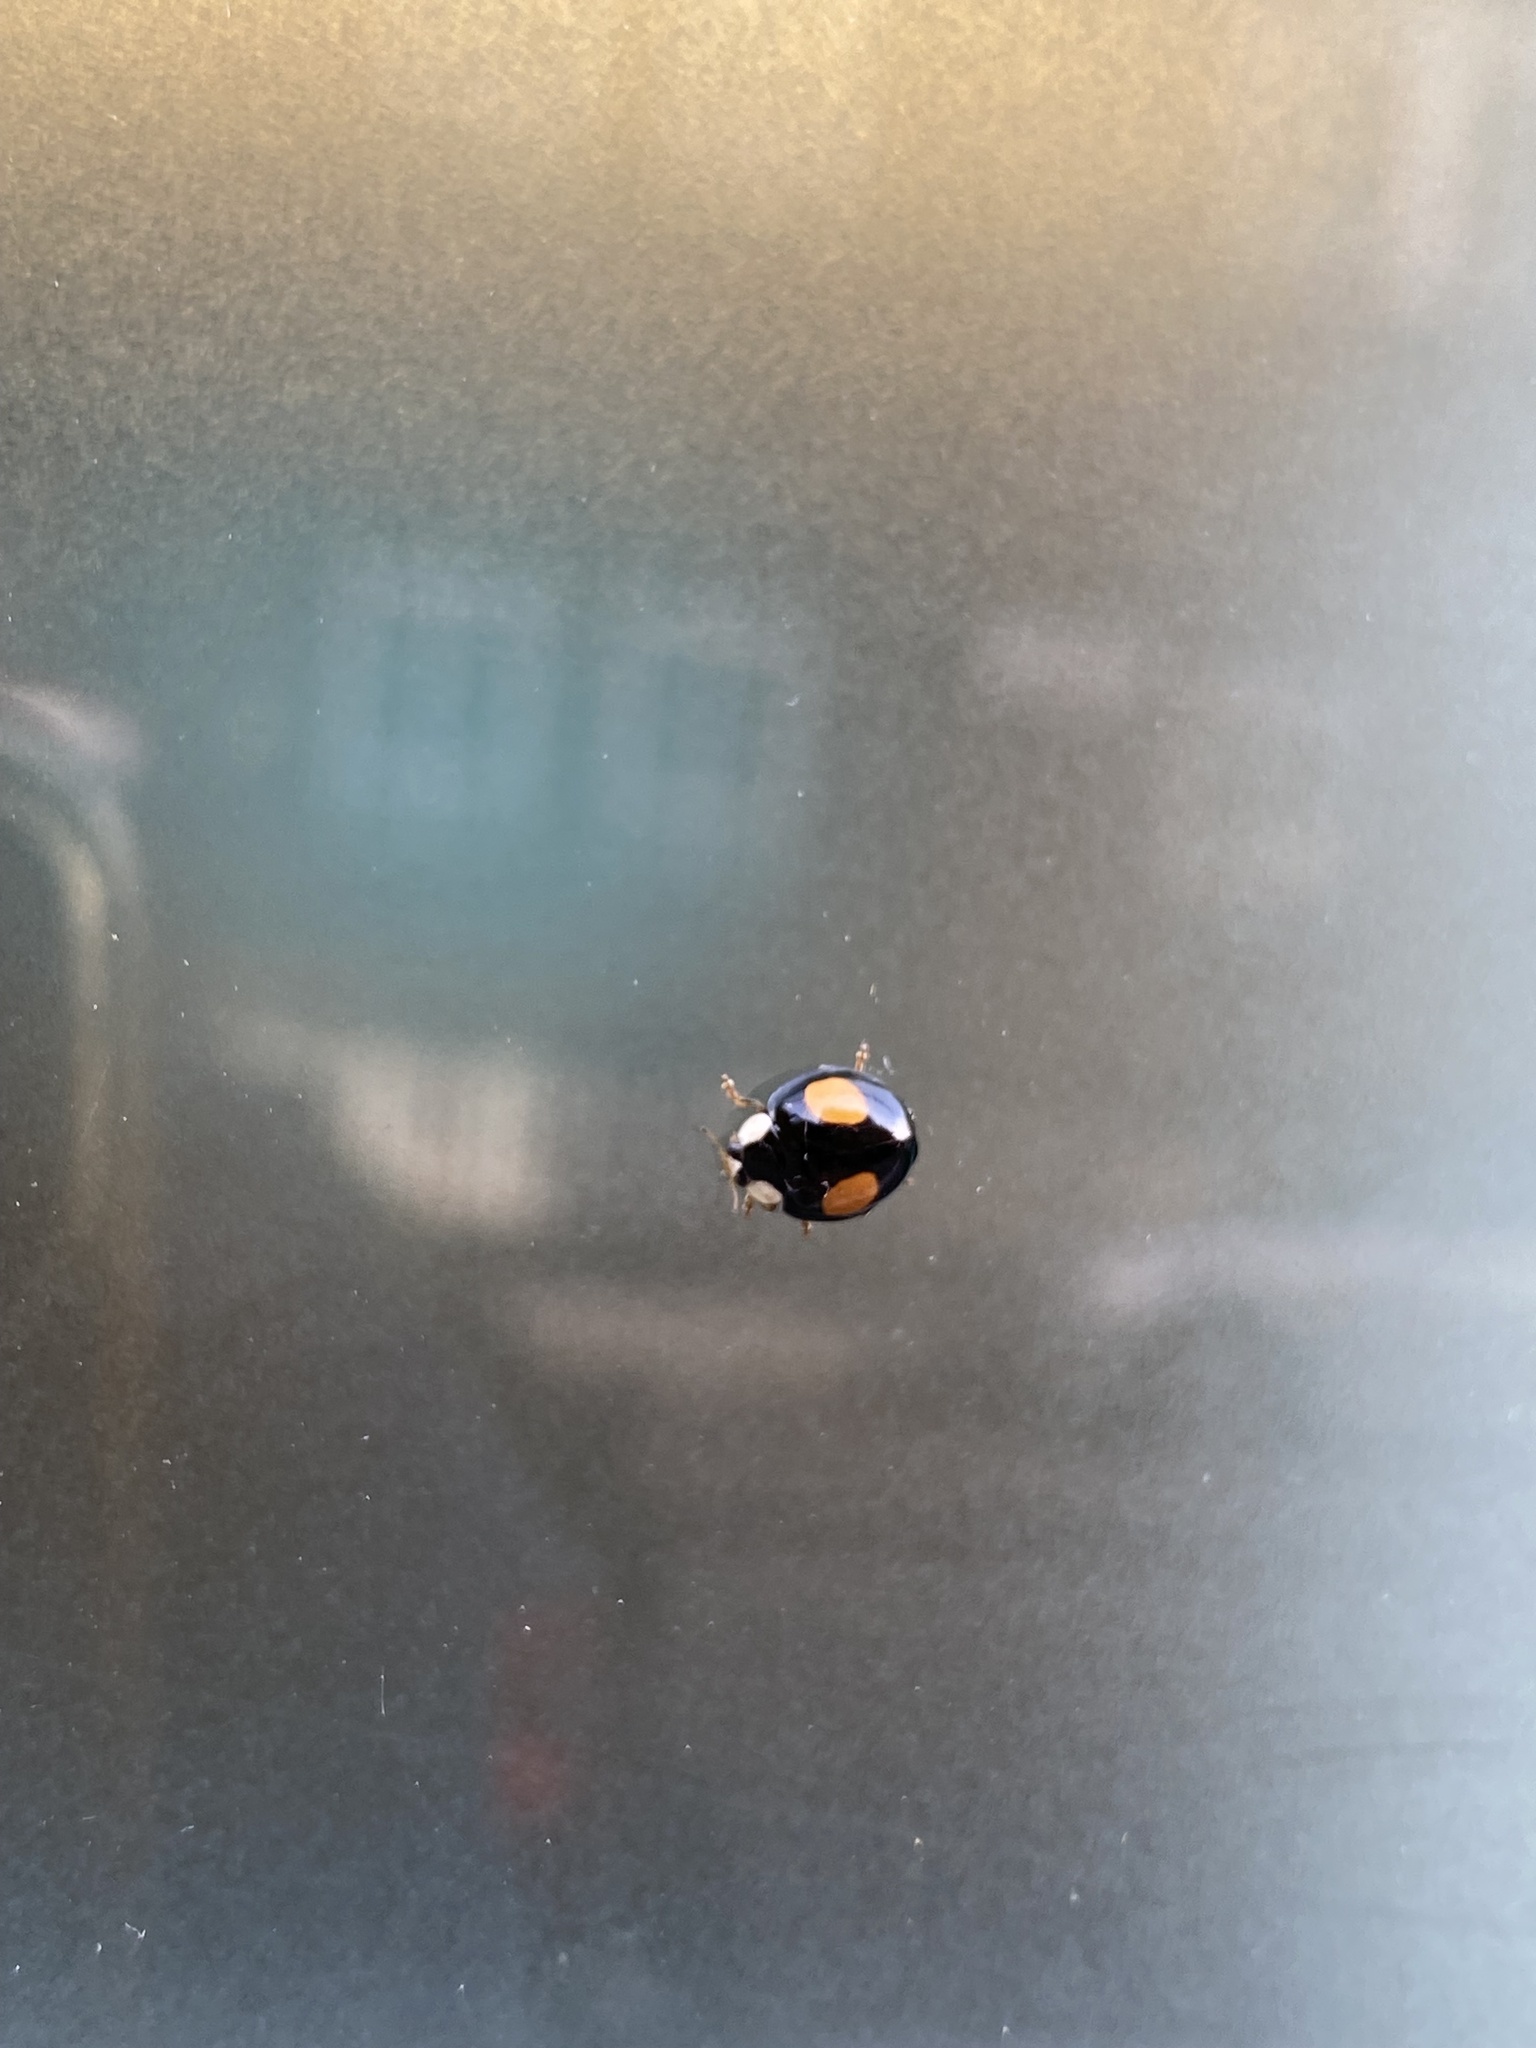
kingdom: Animalia
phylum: Arthropoda
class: Insecta
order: Coleoptera
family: Coccinellidae
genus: Harmonia
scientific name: Harmonia axyridis
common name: Harlequin ladybird
